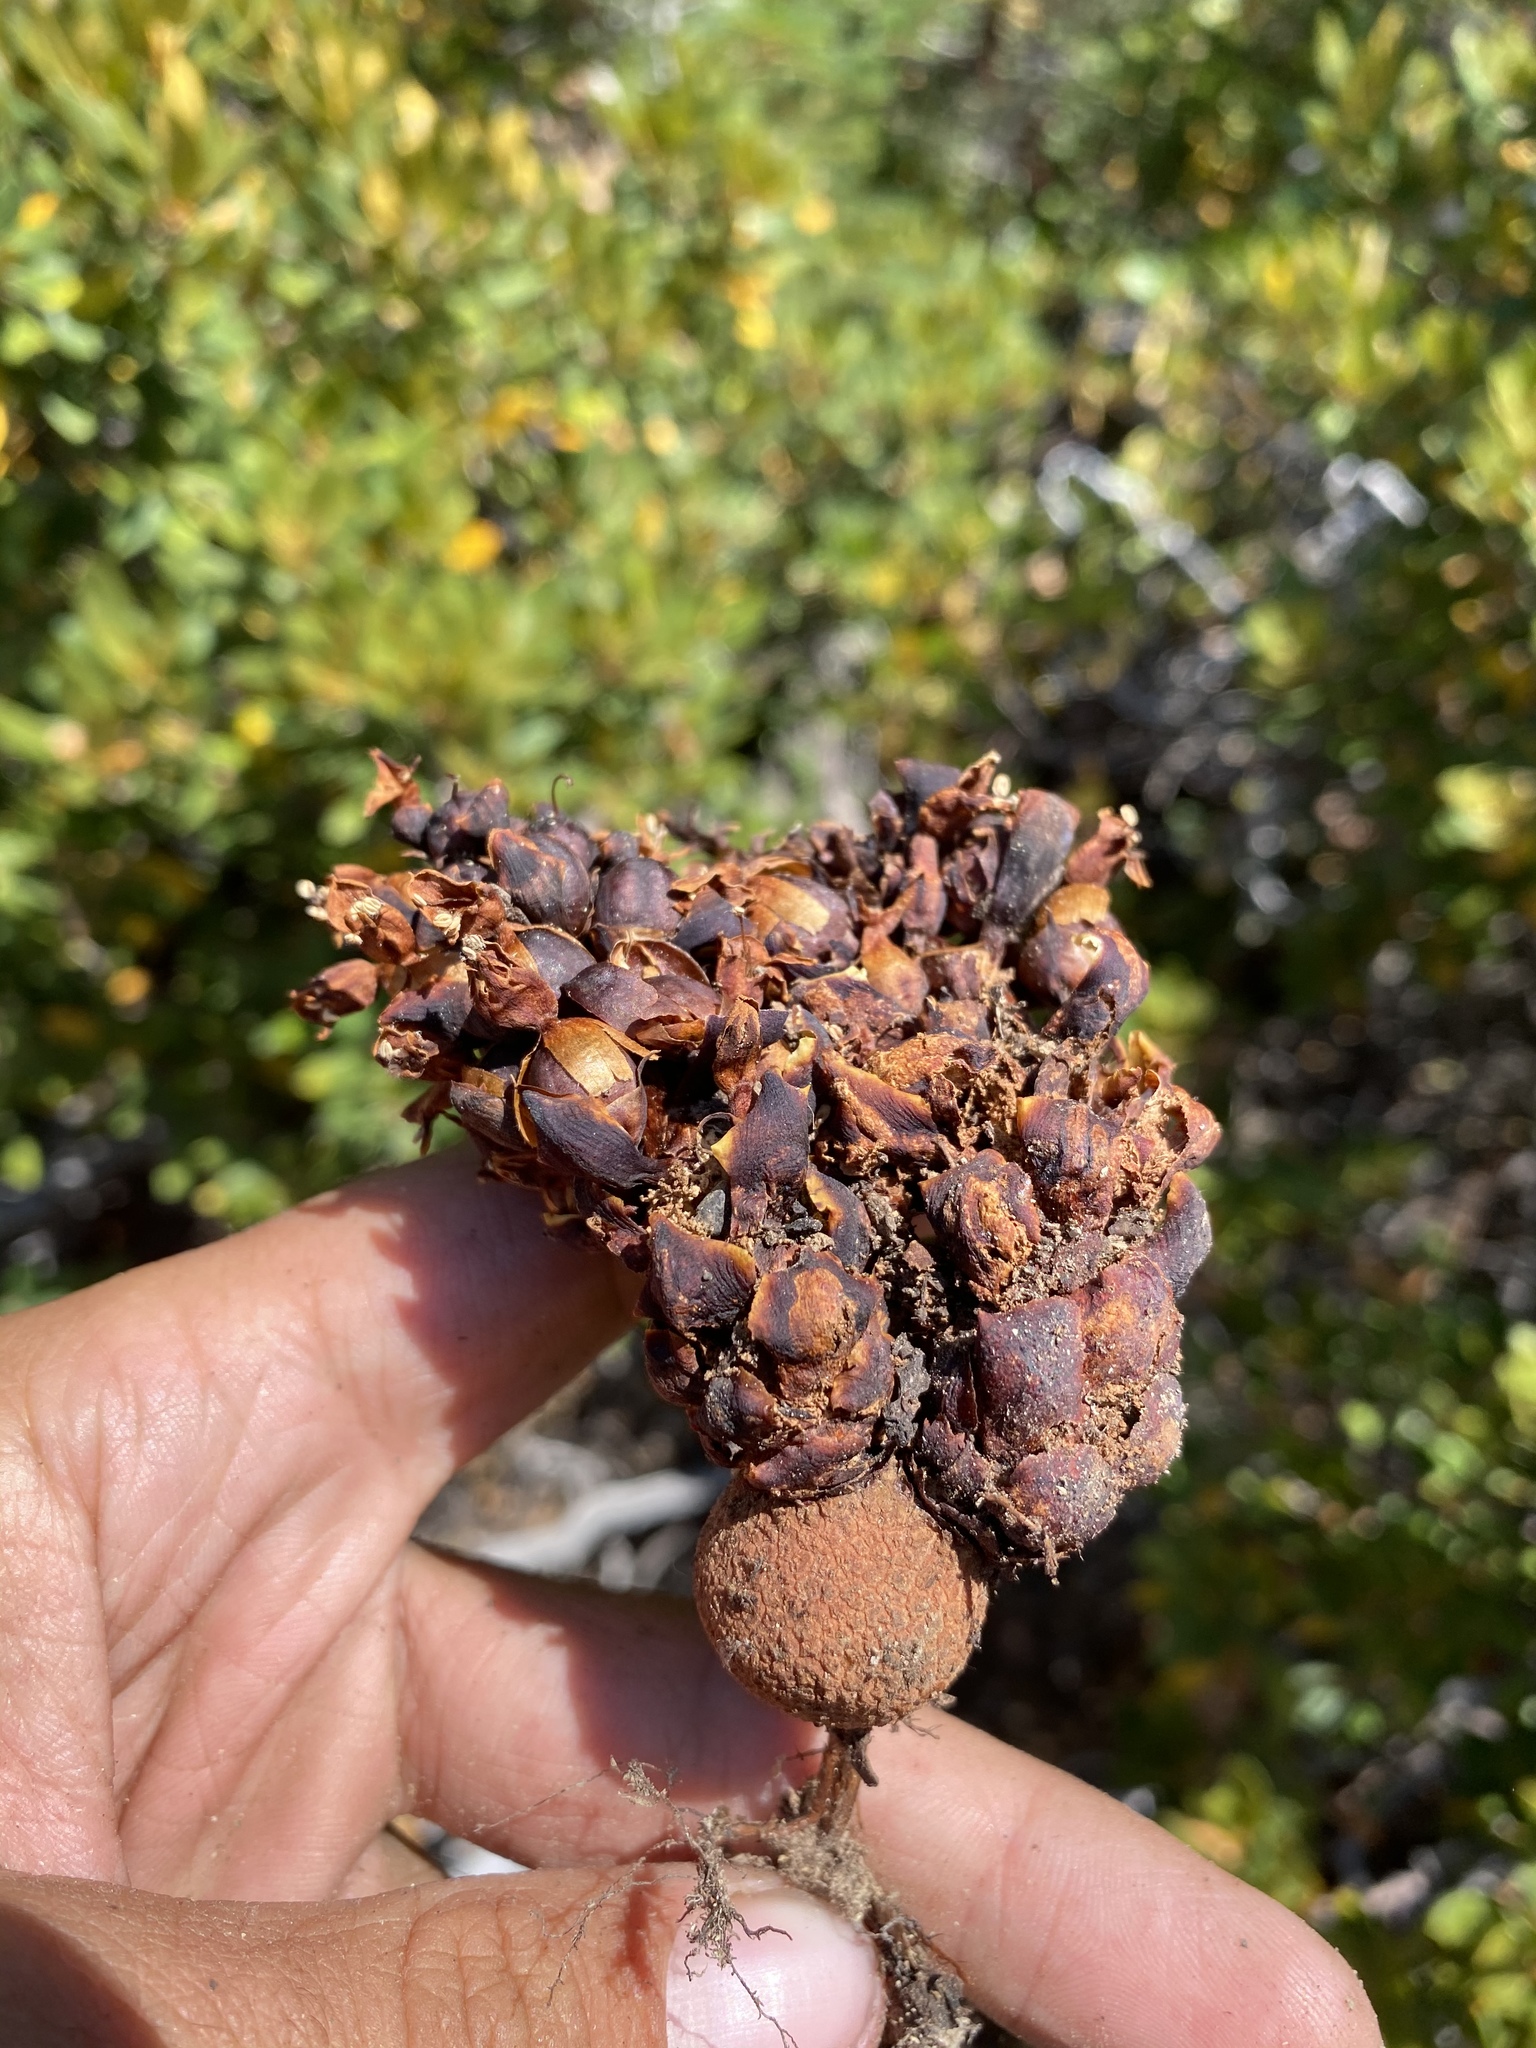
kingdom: Plantae
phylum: Tracheophyta
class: Magnoliopsida
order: Lamiales
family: Orobanchaceae
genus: Kopsiopsis
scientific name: Kopsiopsis strobilacea
